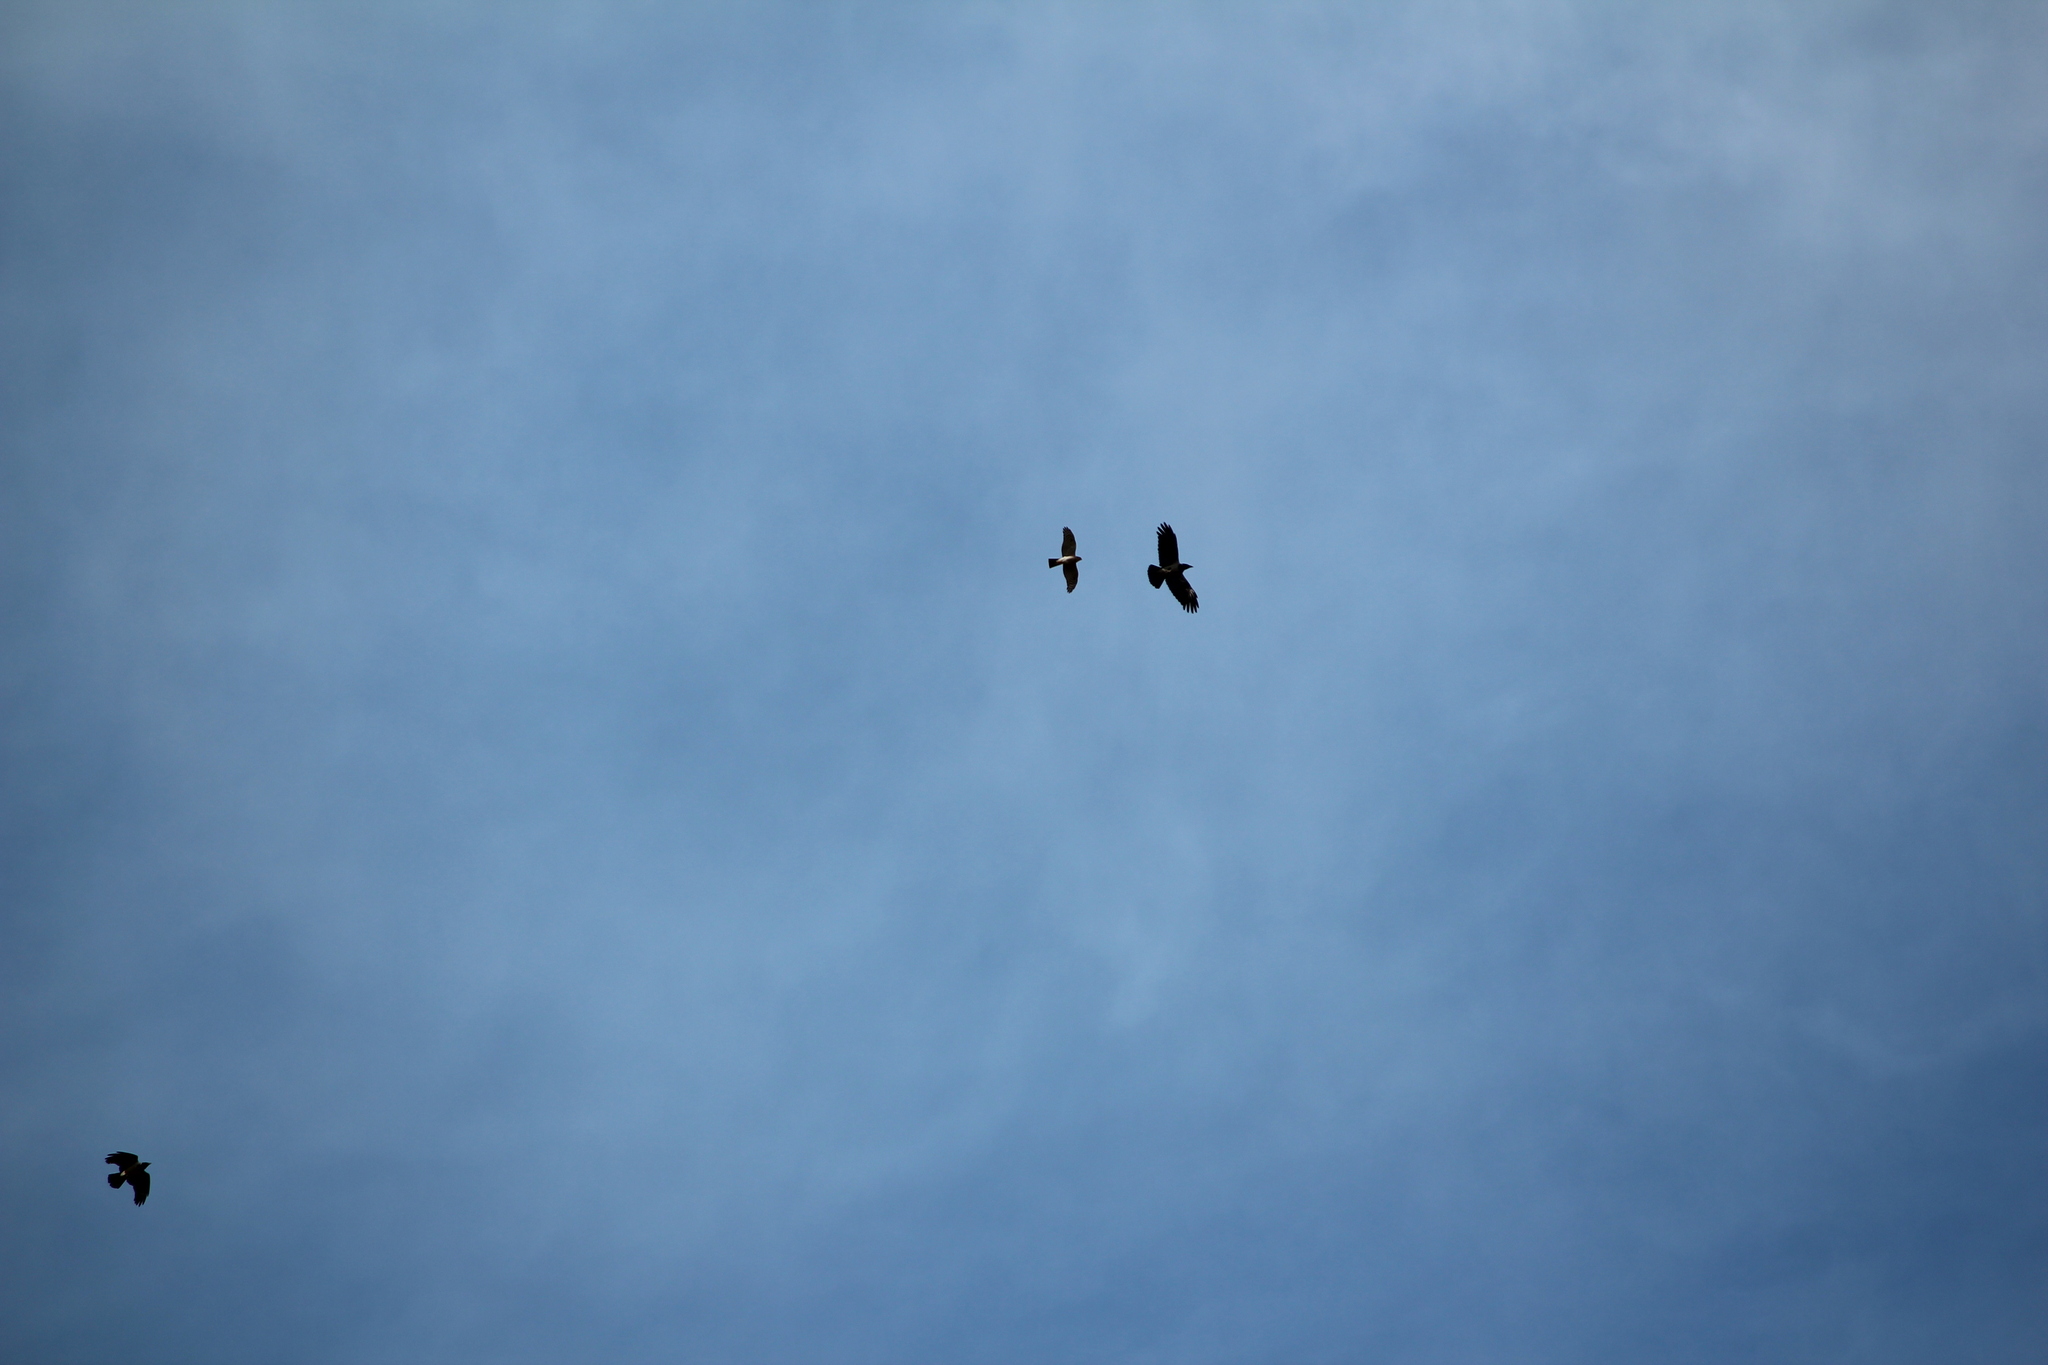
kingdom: Animalia
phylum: Chordata
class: Aves
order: Accipitriformes
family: Accipitridae
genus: Accipiter
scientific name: Accipiter nisus
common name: Eurasian sparrowhawk
